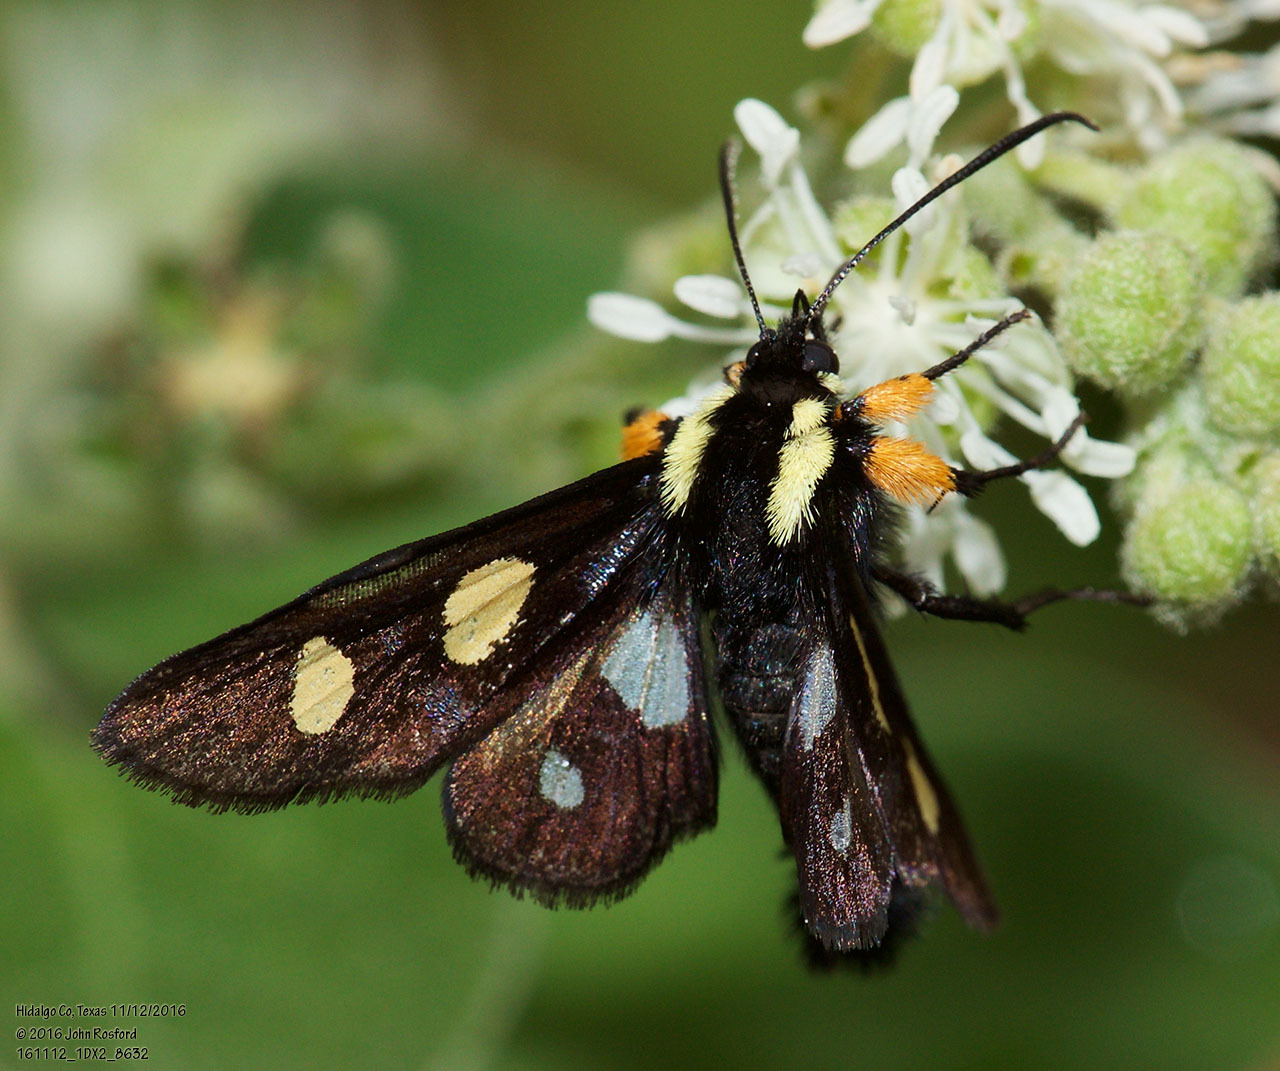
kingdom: Animalia
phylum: Arthropoda
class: Insecta
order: Lepidoptera
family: Noctuidae
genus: Alypia
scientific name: Alypia disparata
